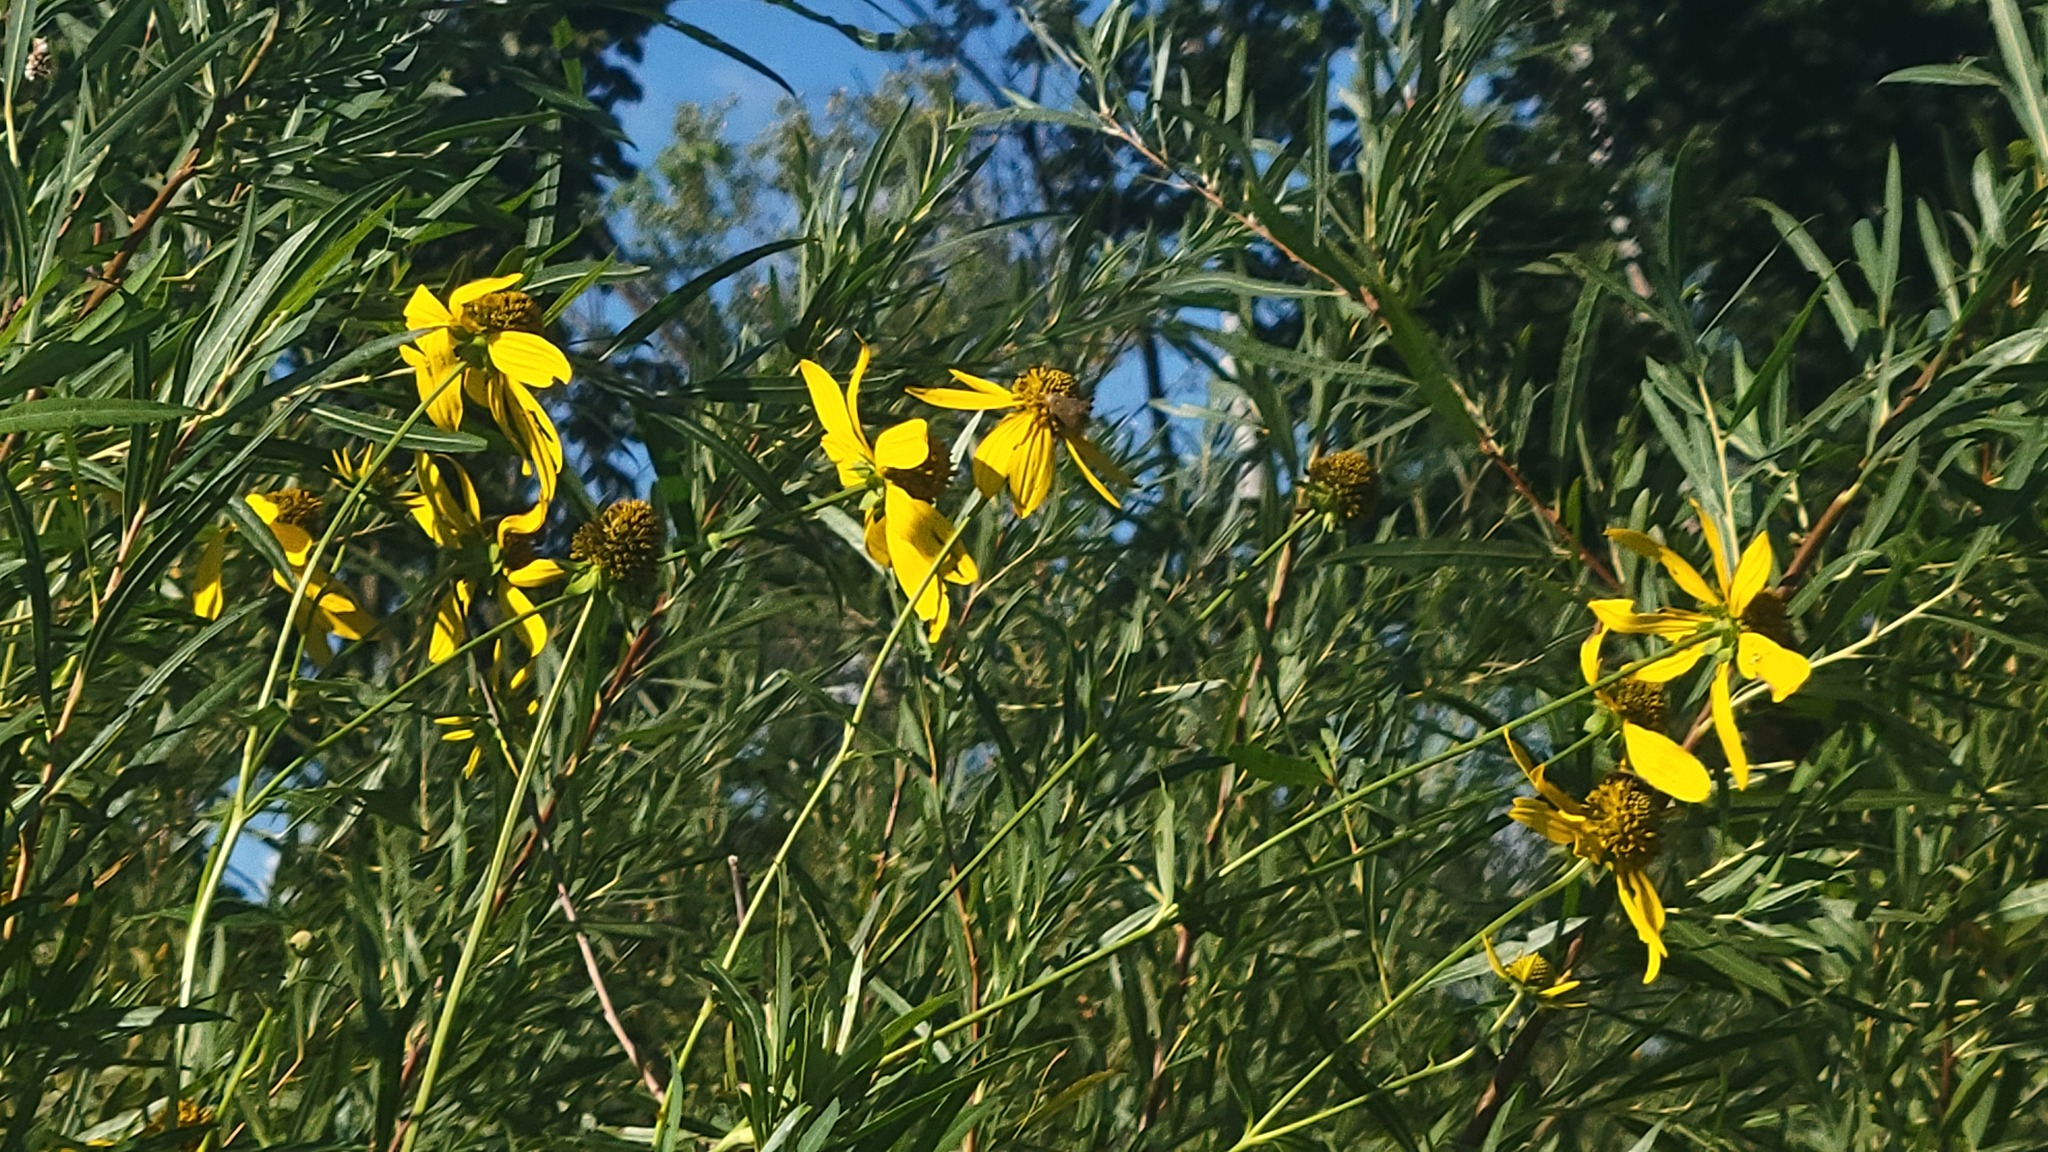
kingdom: Plantae
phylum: Tracheophyta
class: Magnoliopsida
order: Asterales
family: Asteraceae
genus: Rudbeckia
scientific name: Rudbeckia laciniata
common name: Coneflower
